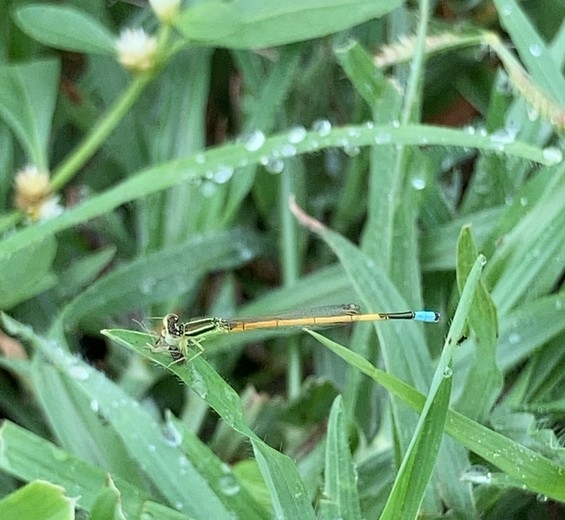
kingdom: Animalia
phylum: Arthropoda
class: Insecta
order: Odonata
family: Coenagrionidae
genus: Ischnura
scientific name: Ischnura rubilio
